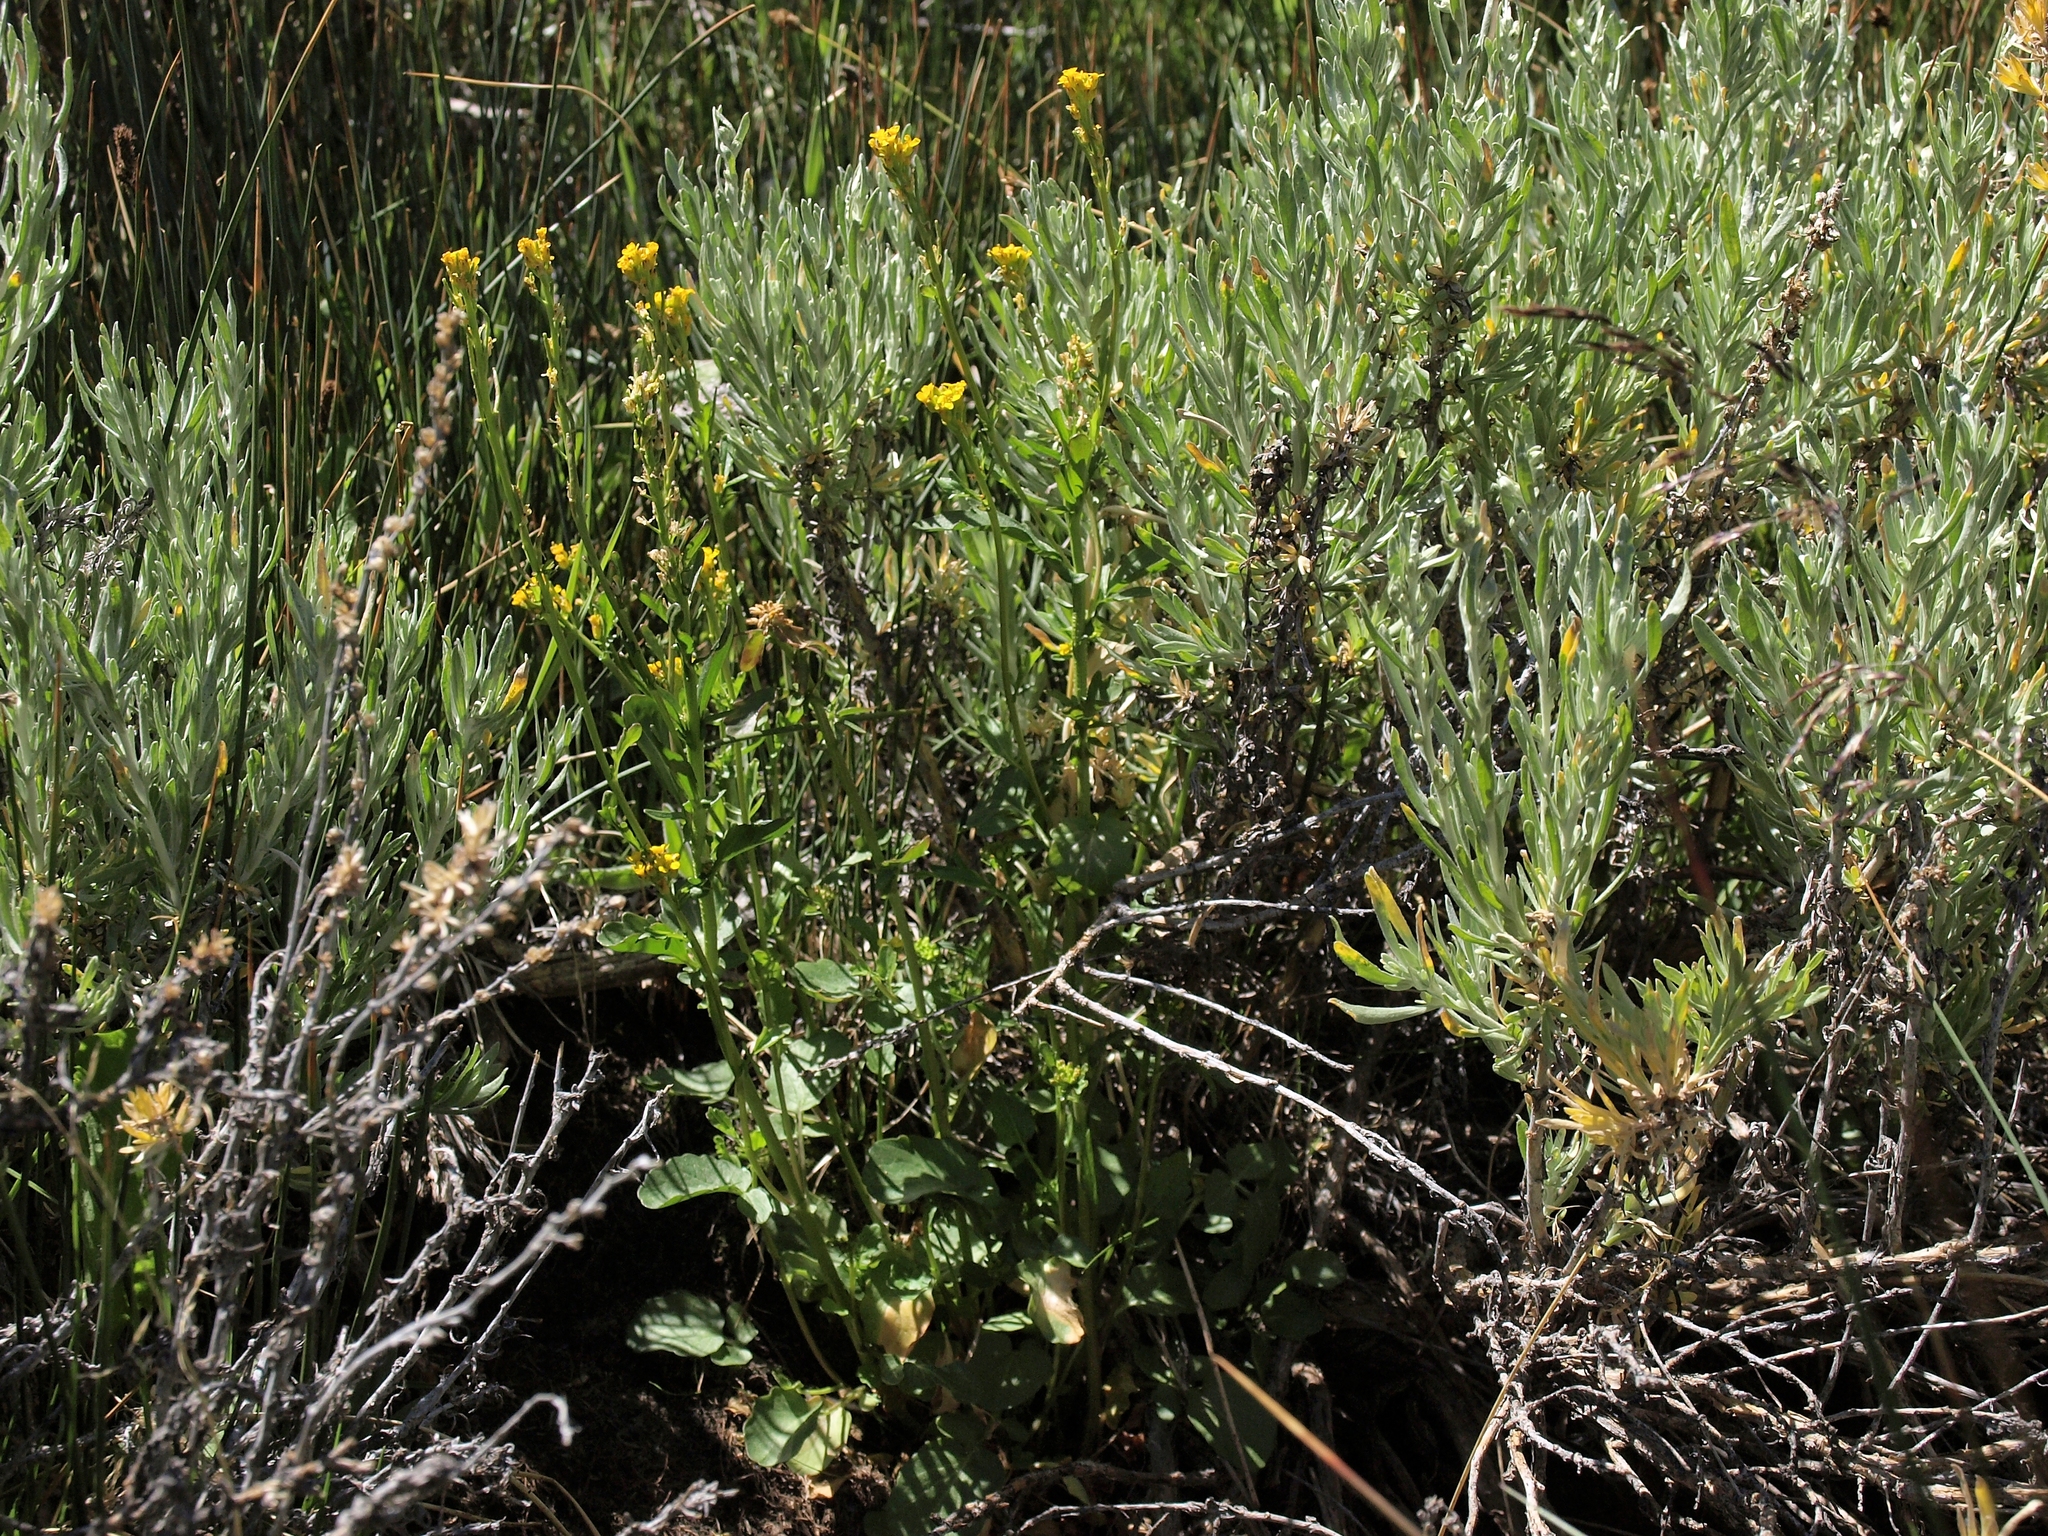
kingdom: Plantae
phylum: Tracheophyta
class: Magnoliopsida
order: Brassicales
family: Brassicaceae
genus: Barbarea
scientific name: Barbarea orthoceras
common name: American wintercress
